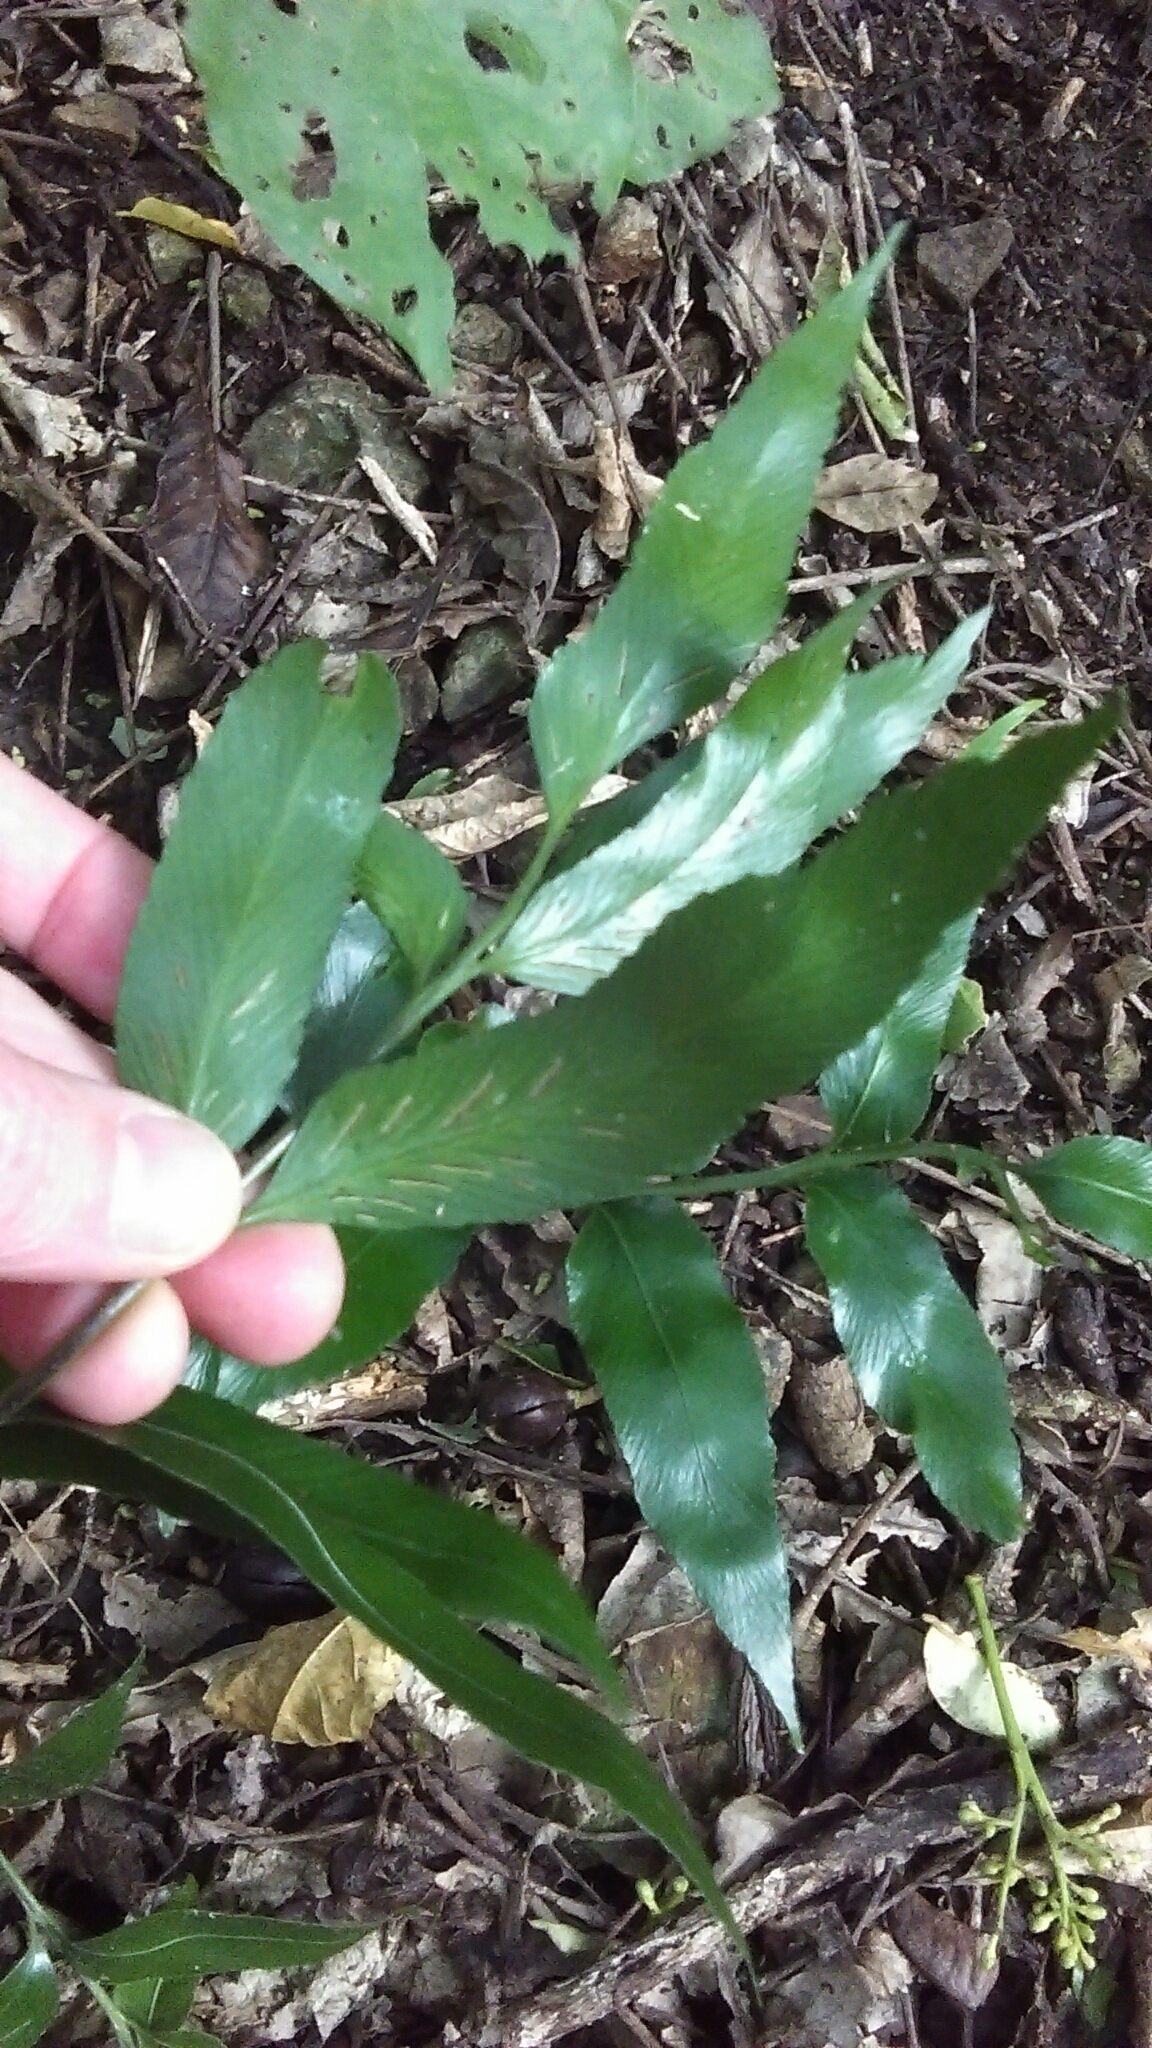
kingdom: Plantae
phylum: Tracheophyta
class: Polypodiopsida
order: Polypodiales
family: Aspleniaceae
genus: Asplenium
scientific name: Asplenium oblongifolium
